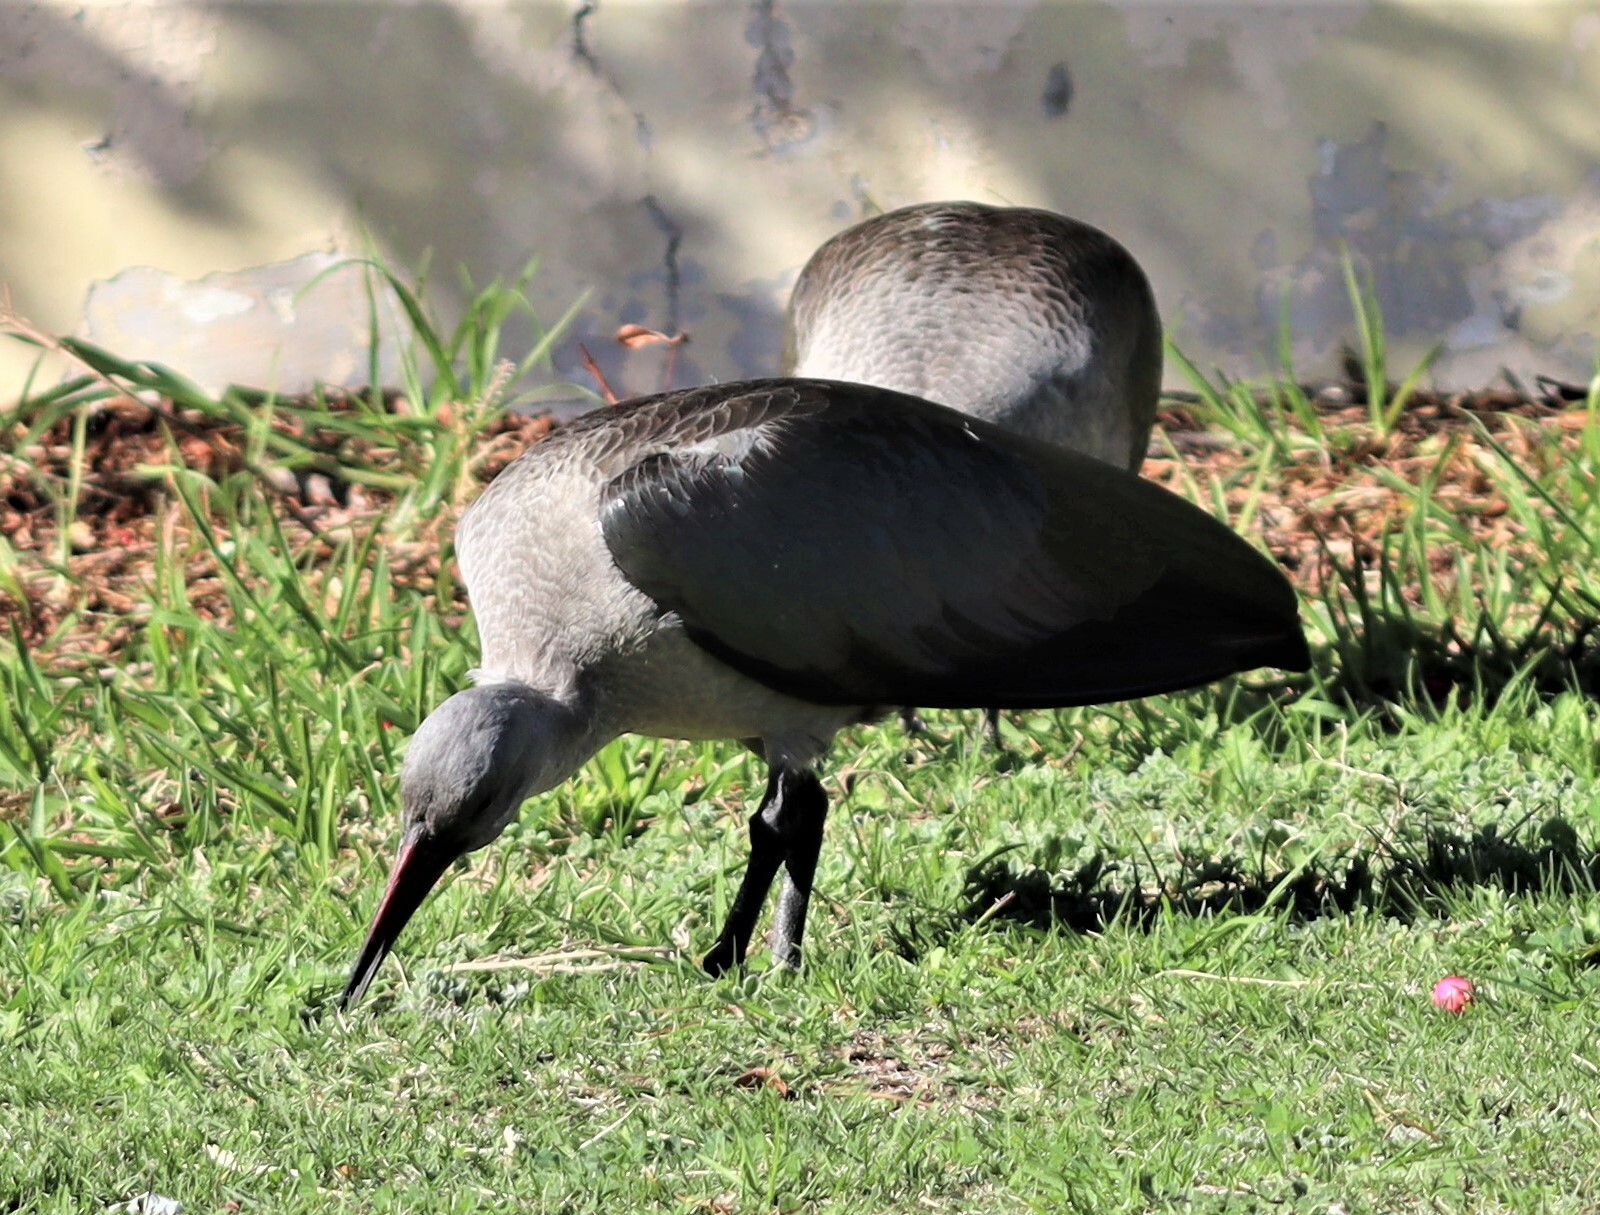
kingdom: Animalia
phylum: Chordata
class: Aves
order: Pelecaniformes
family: Threskiornithidae
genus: Bostrychia
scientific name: Bostrychia hagedash
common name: Hadada ibis
